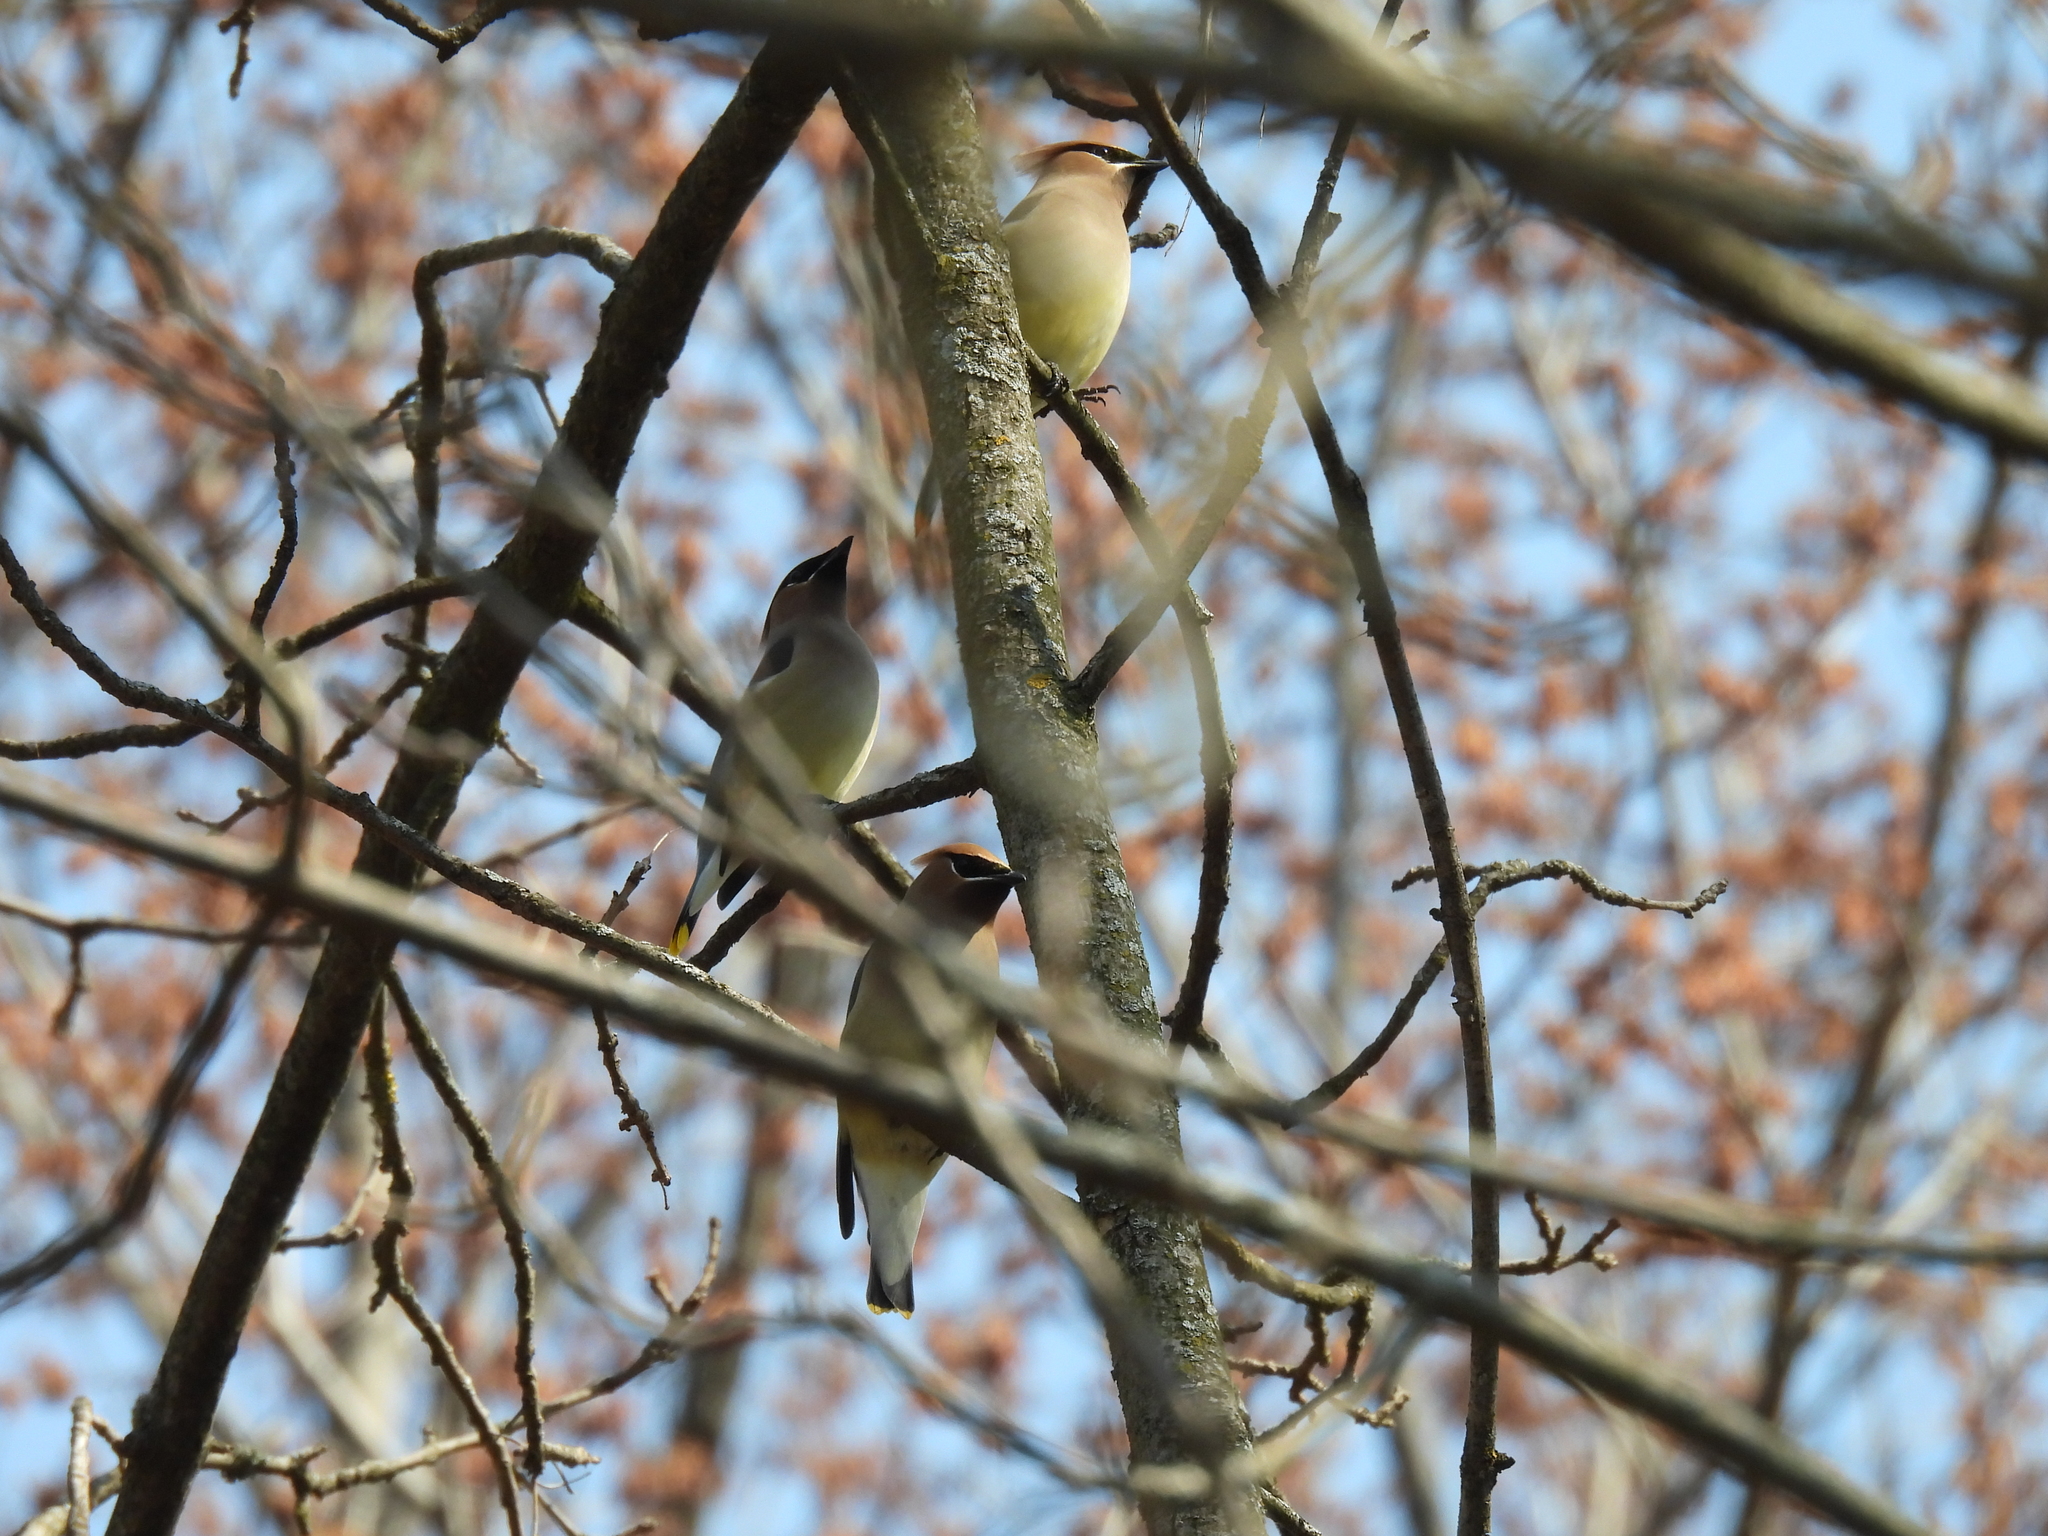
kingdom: Animalia
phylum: Chordata
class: Aves
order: Passeriformes
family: Bombycillidae
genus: Bombycilla
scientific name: Bombycilla cedrorum
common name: Cedar waxwing
